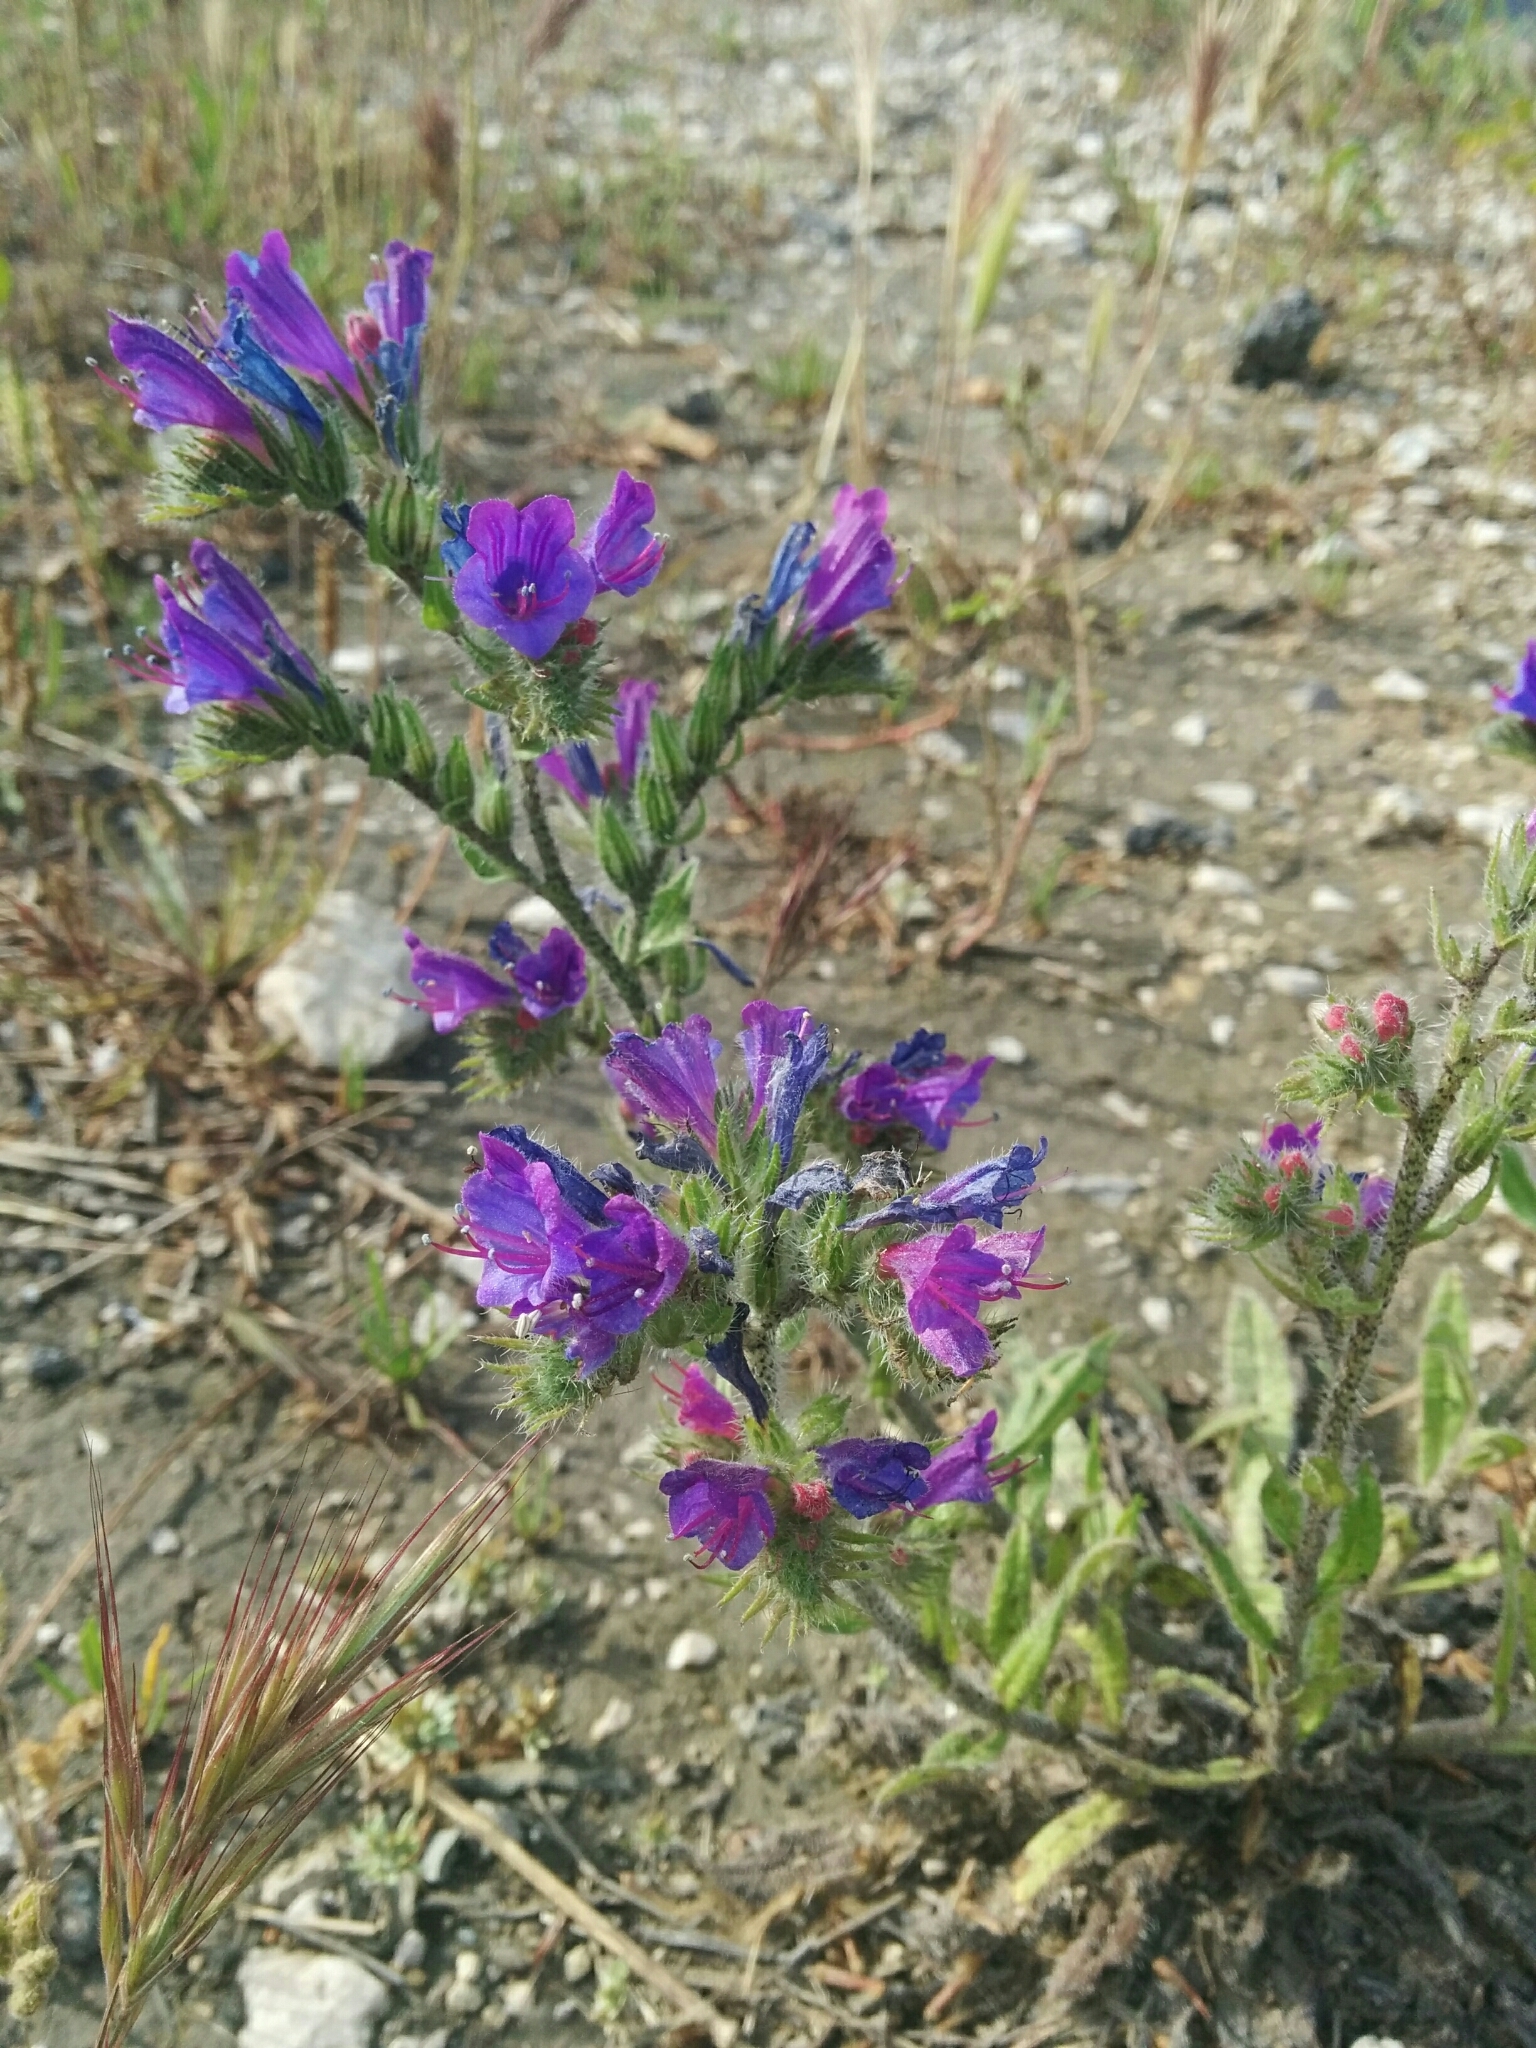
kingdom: Plantae
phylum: Tracheophyta
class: Magnoliopsida
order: Boraginales
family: Boraginaceae
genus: Echium
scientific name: Echium vulgare
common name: Common viper's bugloss
